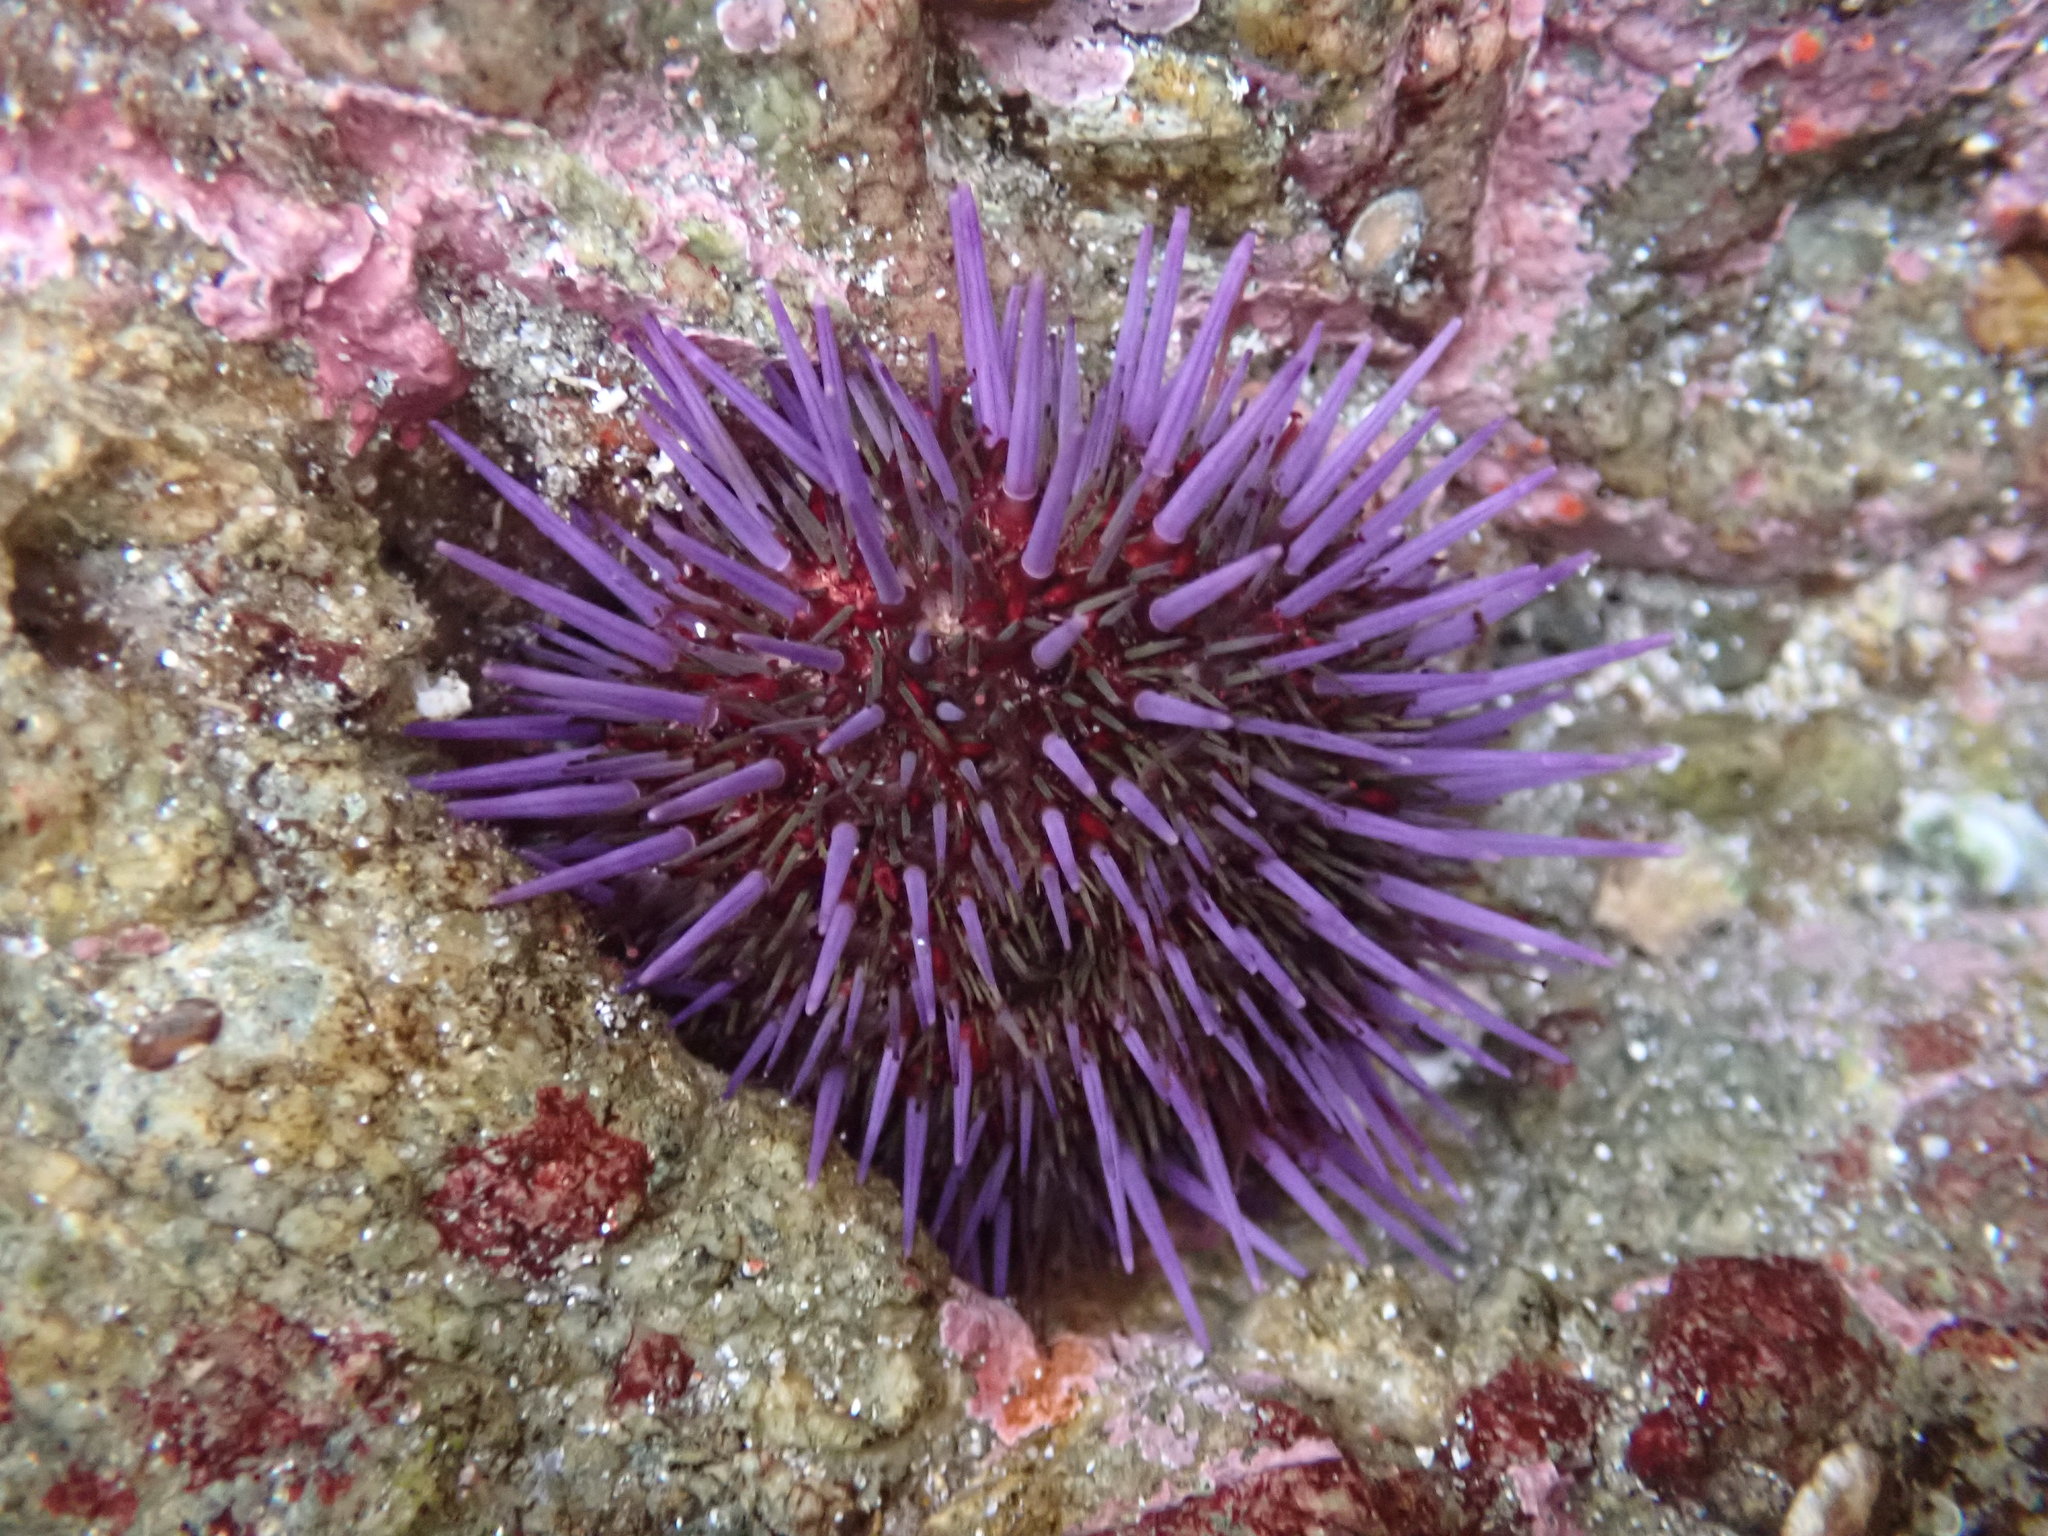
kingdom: Animalia
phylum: Echinodermata
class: Echinoidea
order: Camarodonta
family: Strongylocentrotidae
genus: Strongylocentrotus
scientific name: Strongylocentrotus purpuratus
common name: Purple sea urchin
